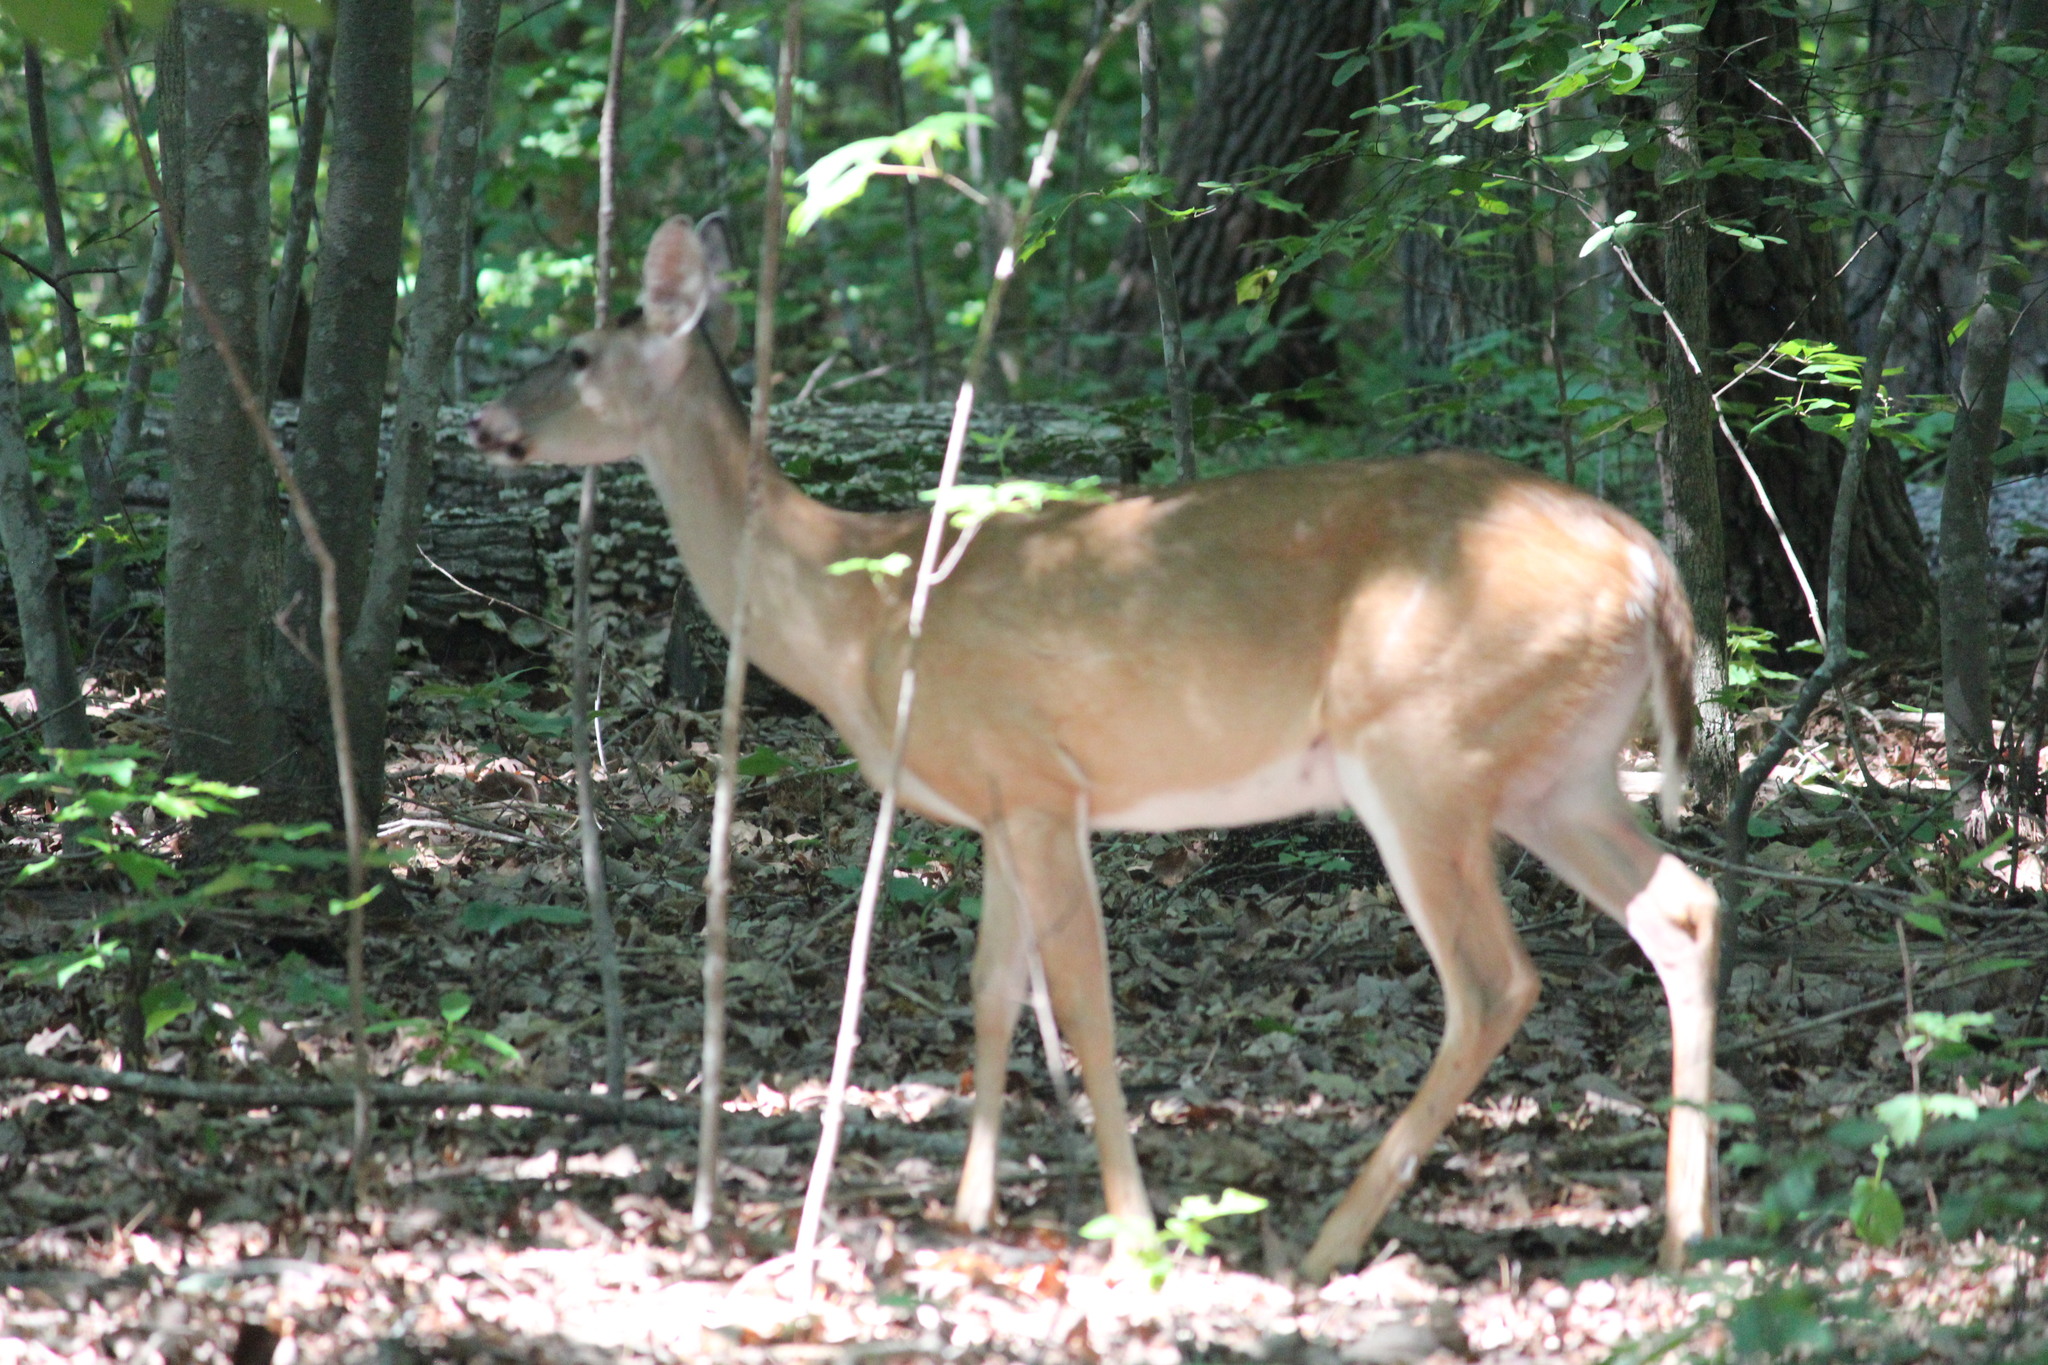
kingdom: Animalia
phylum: Chordata
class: Mammalia
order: Artiodactyla
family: Cervidae
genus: Odocoileus
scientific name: Odocoileus virginianus
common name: White-tailed deer
